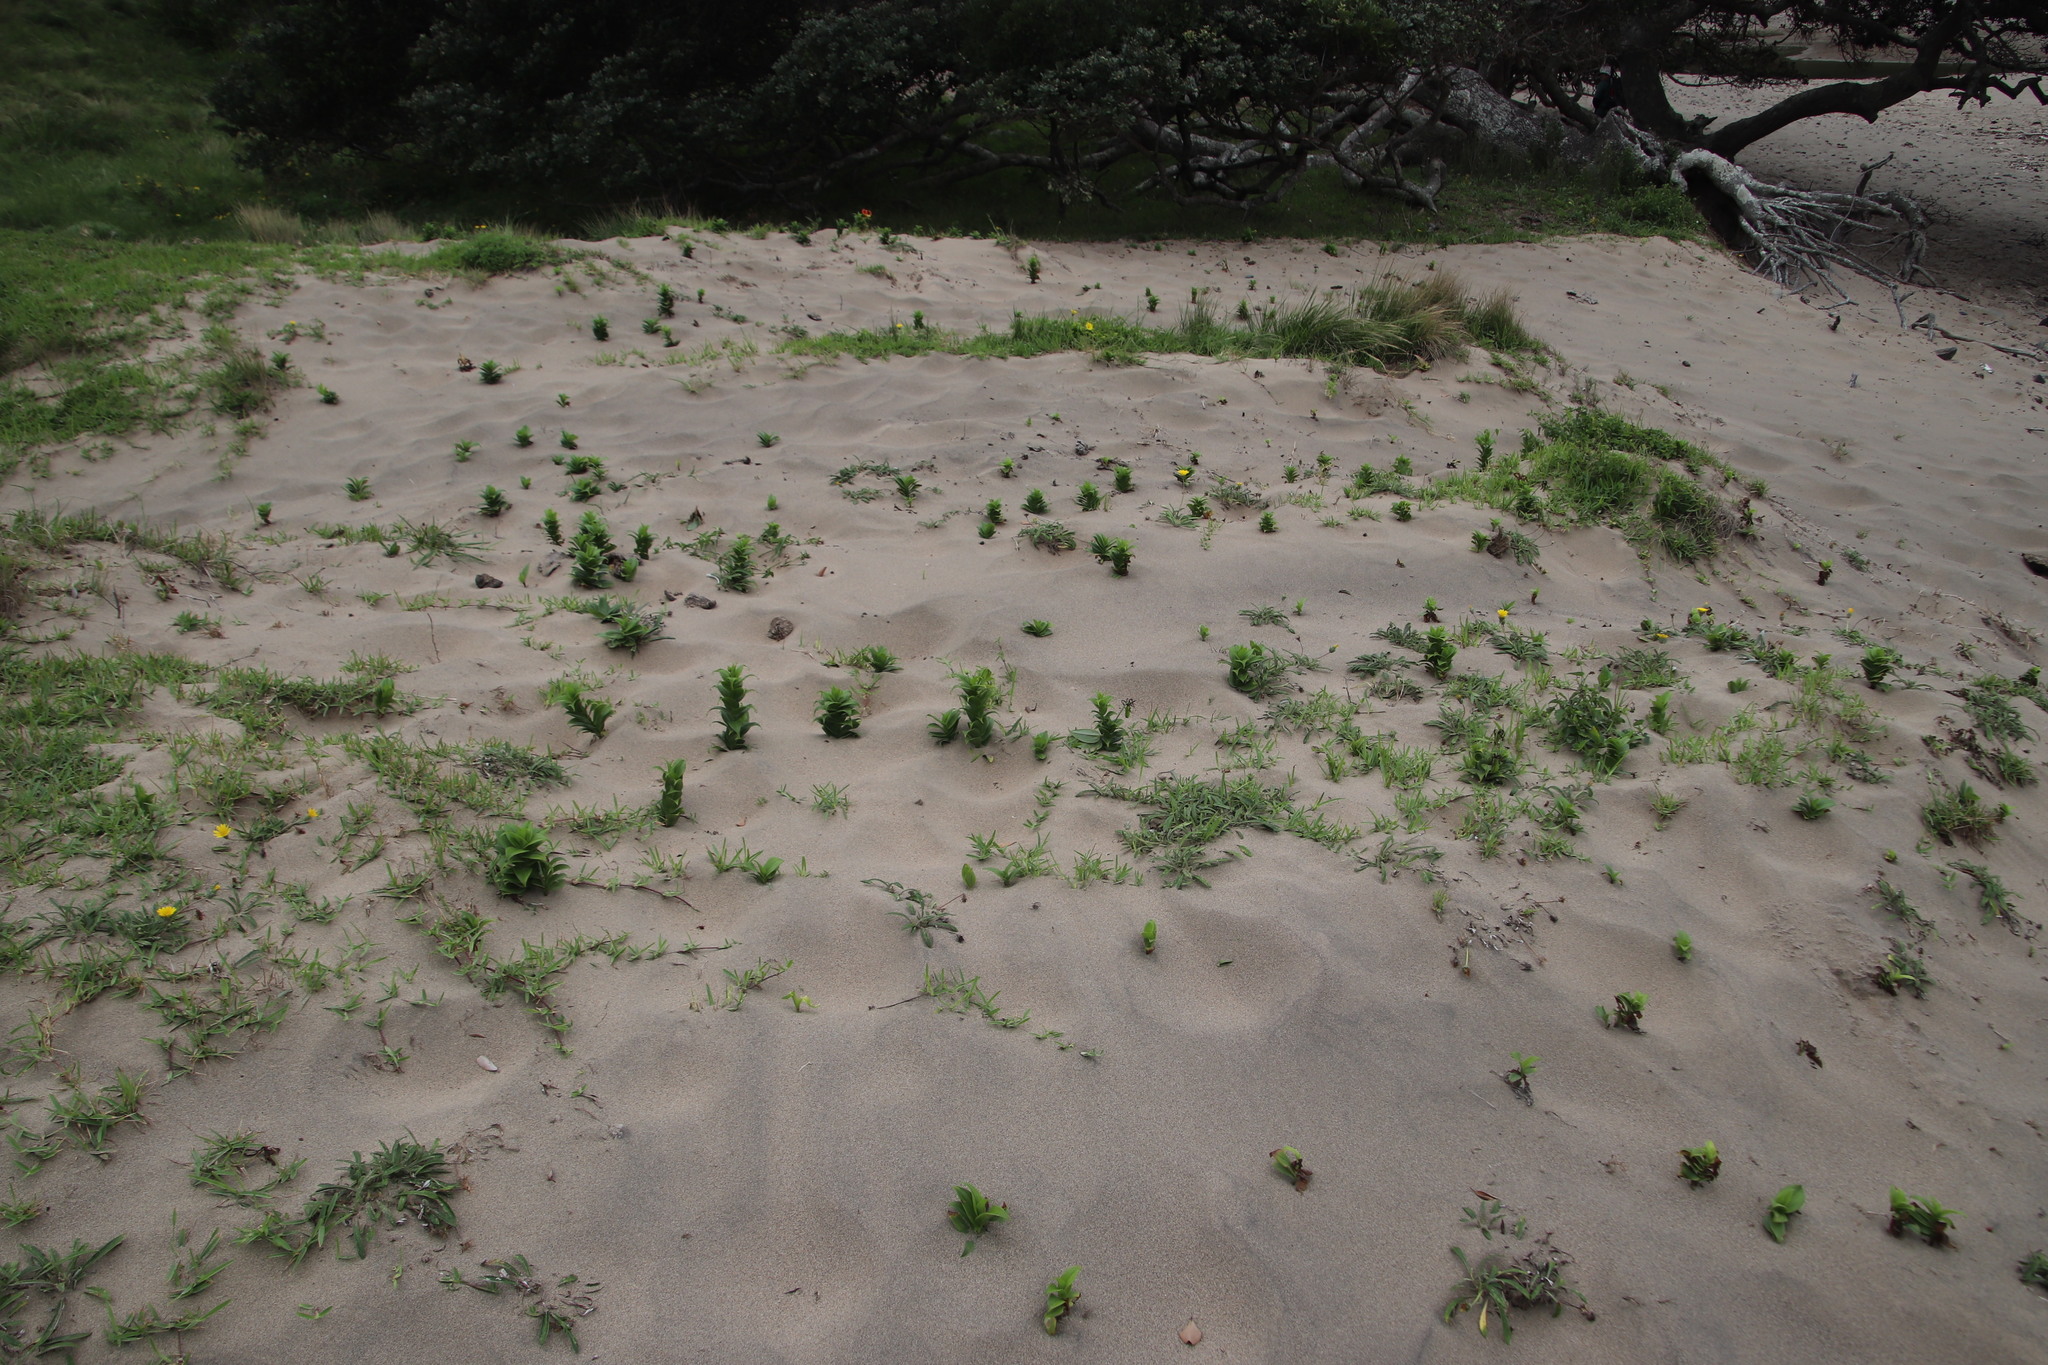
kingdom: Plantae
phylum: Tracheophyta
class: Liliopsida
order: Liliales
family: Colchicaceae
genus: Gloriosa
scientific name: Gloriosa superba
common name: Flame lily
